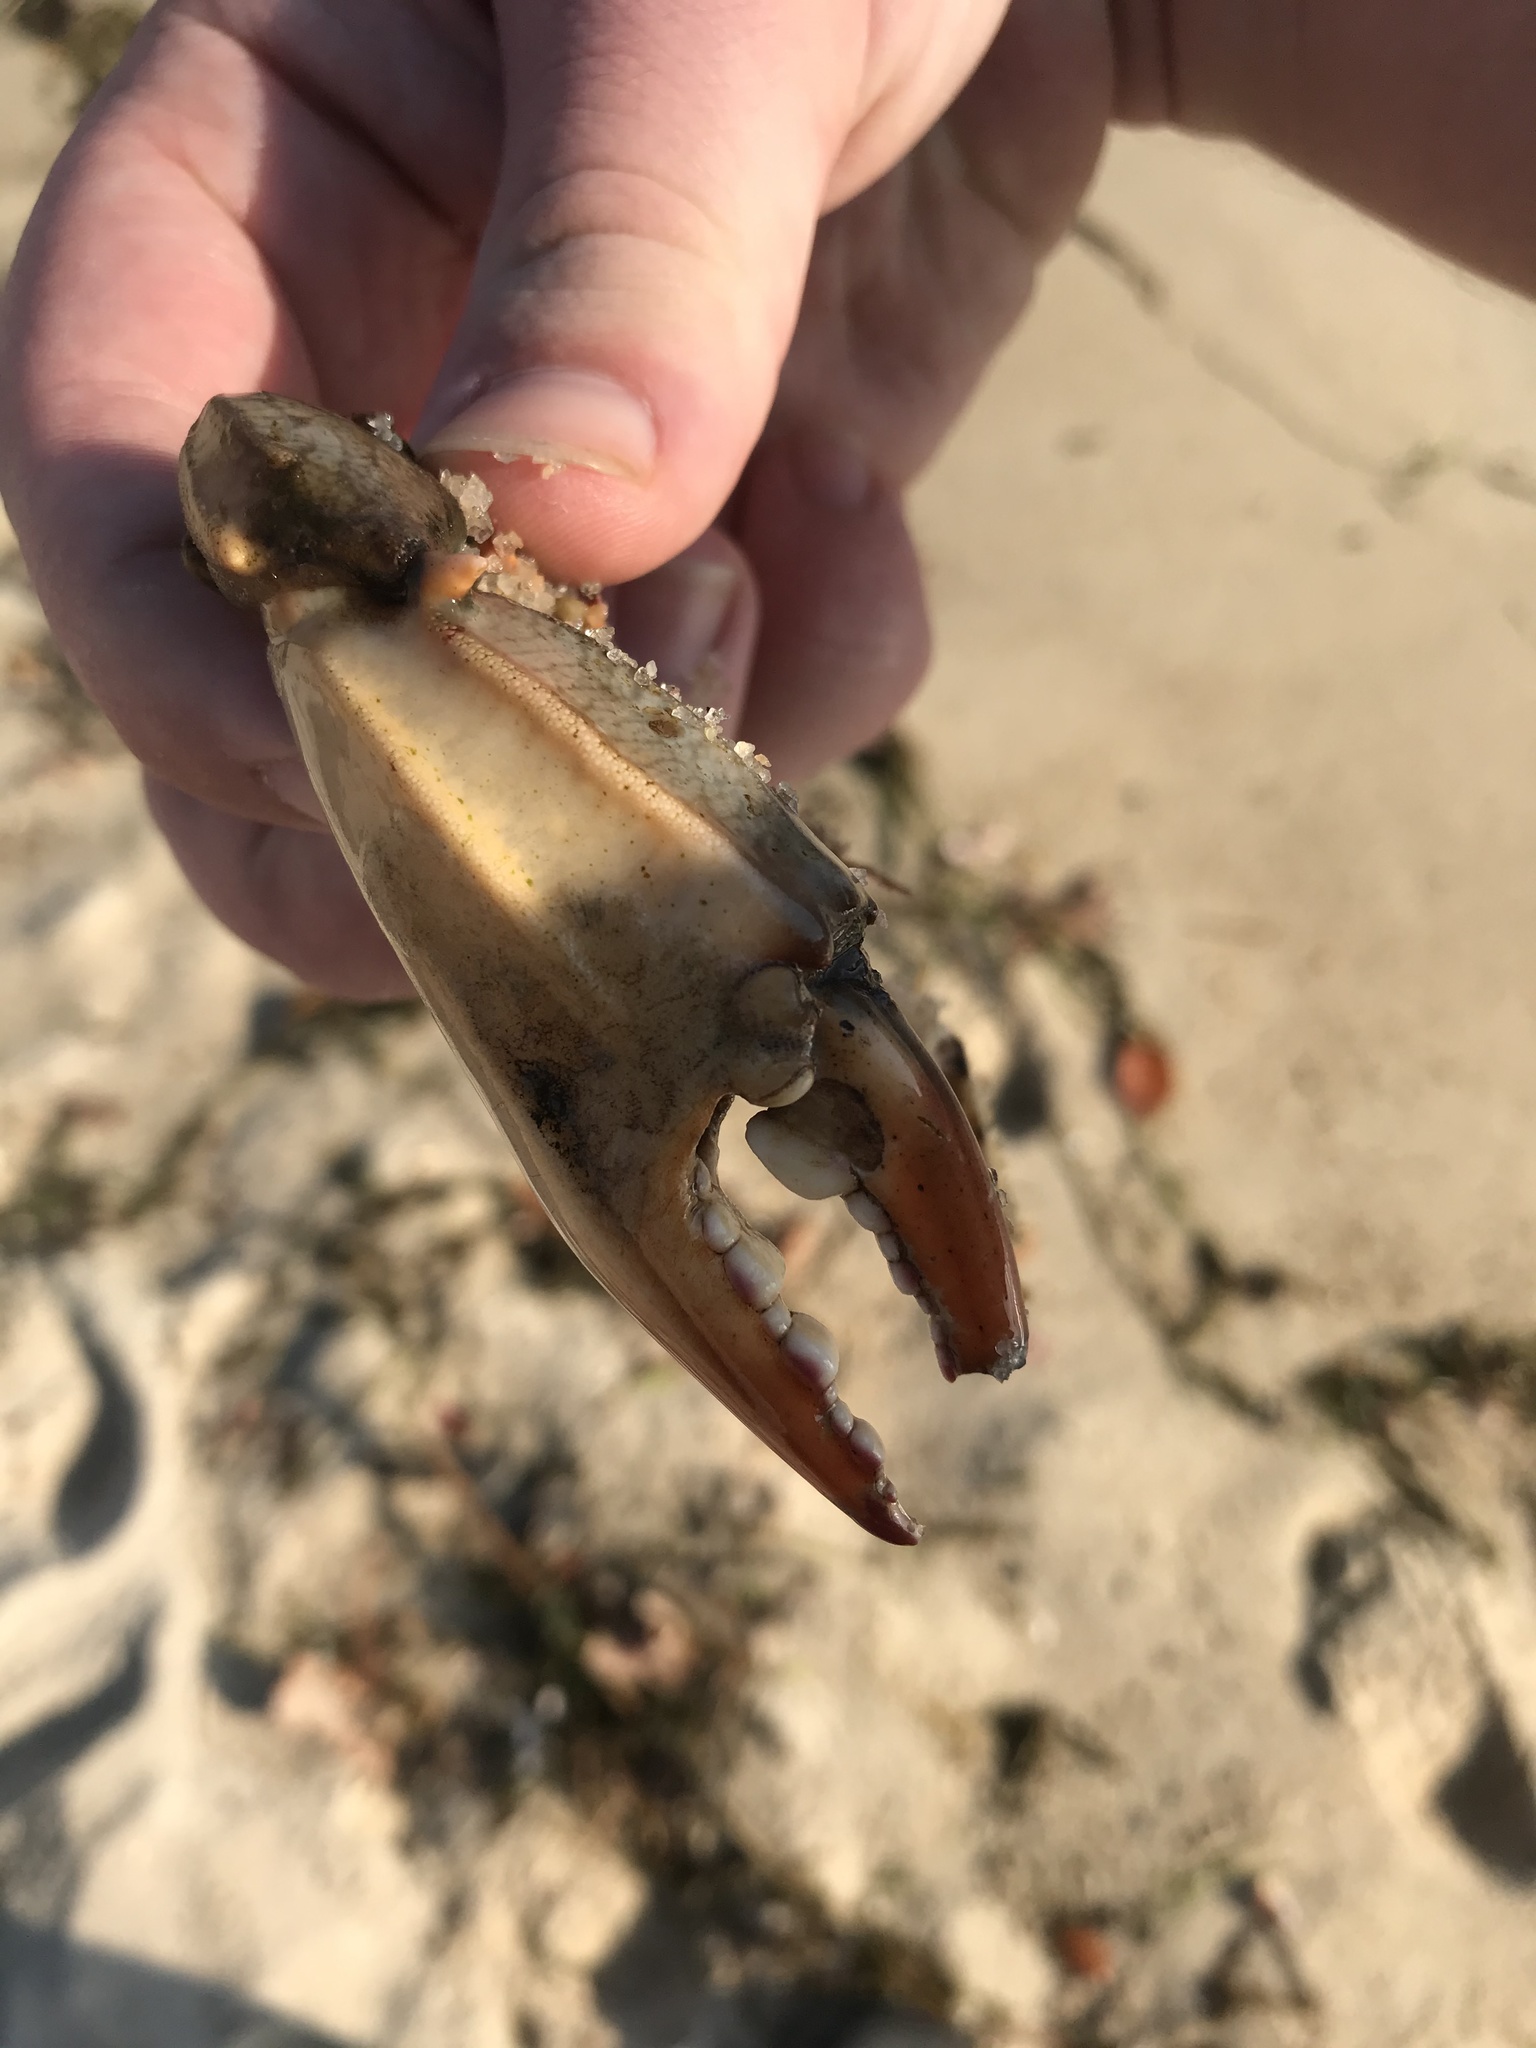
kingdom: Animalia
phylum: Arthropoda
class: Malacostraca
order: Decapoda
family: Portunidae
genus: Callinectes
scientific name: Callinectes sapidus
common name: Blue crab
